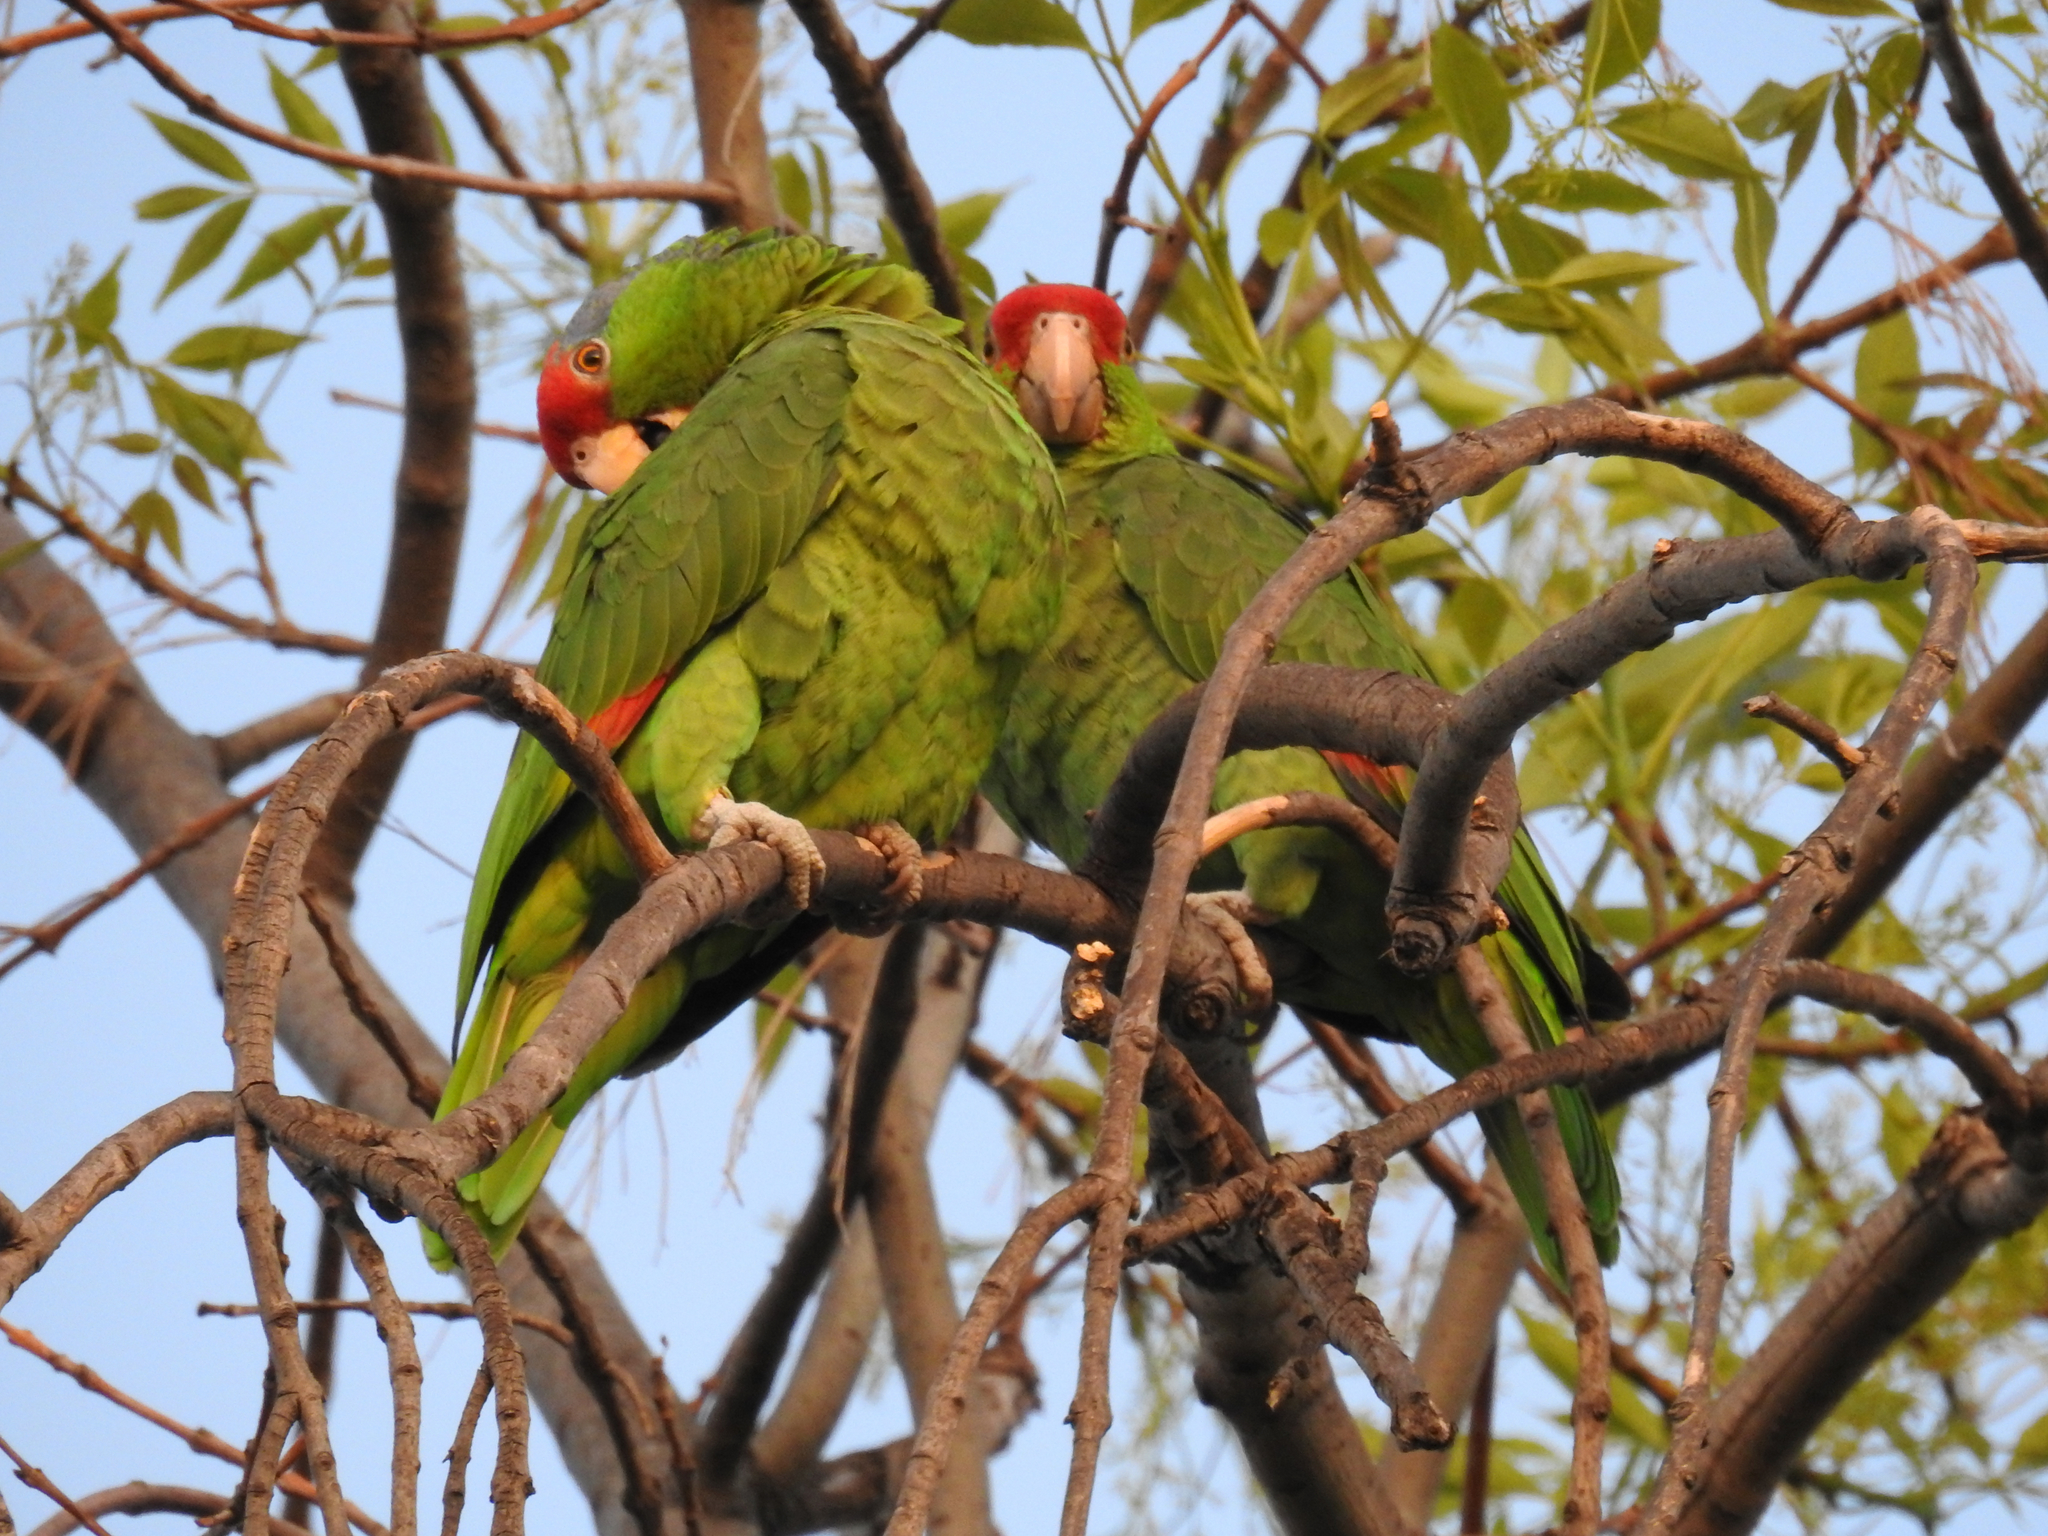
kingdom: Animalia
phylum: Chordata
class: Aves
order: Psittaciformes
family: Psittacidae
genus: Amazona
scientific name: Amazona viridigenalis
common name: Red-crowned amazon
